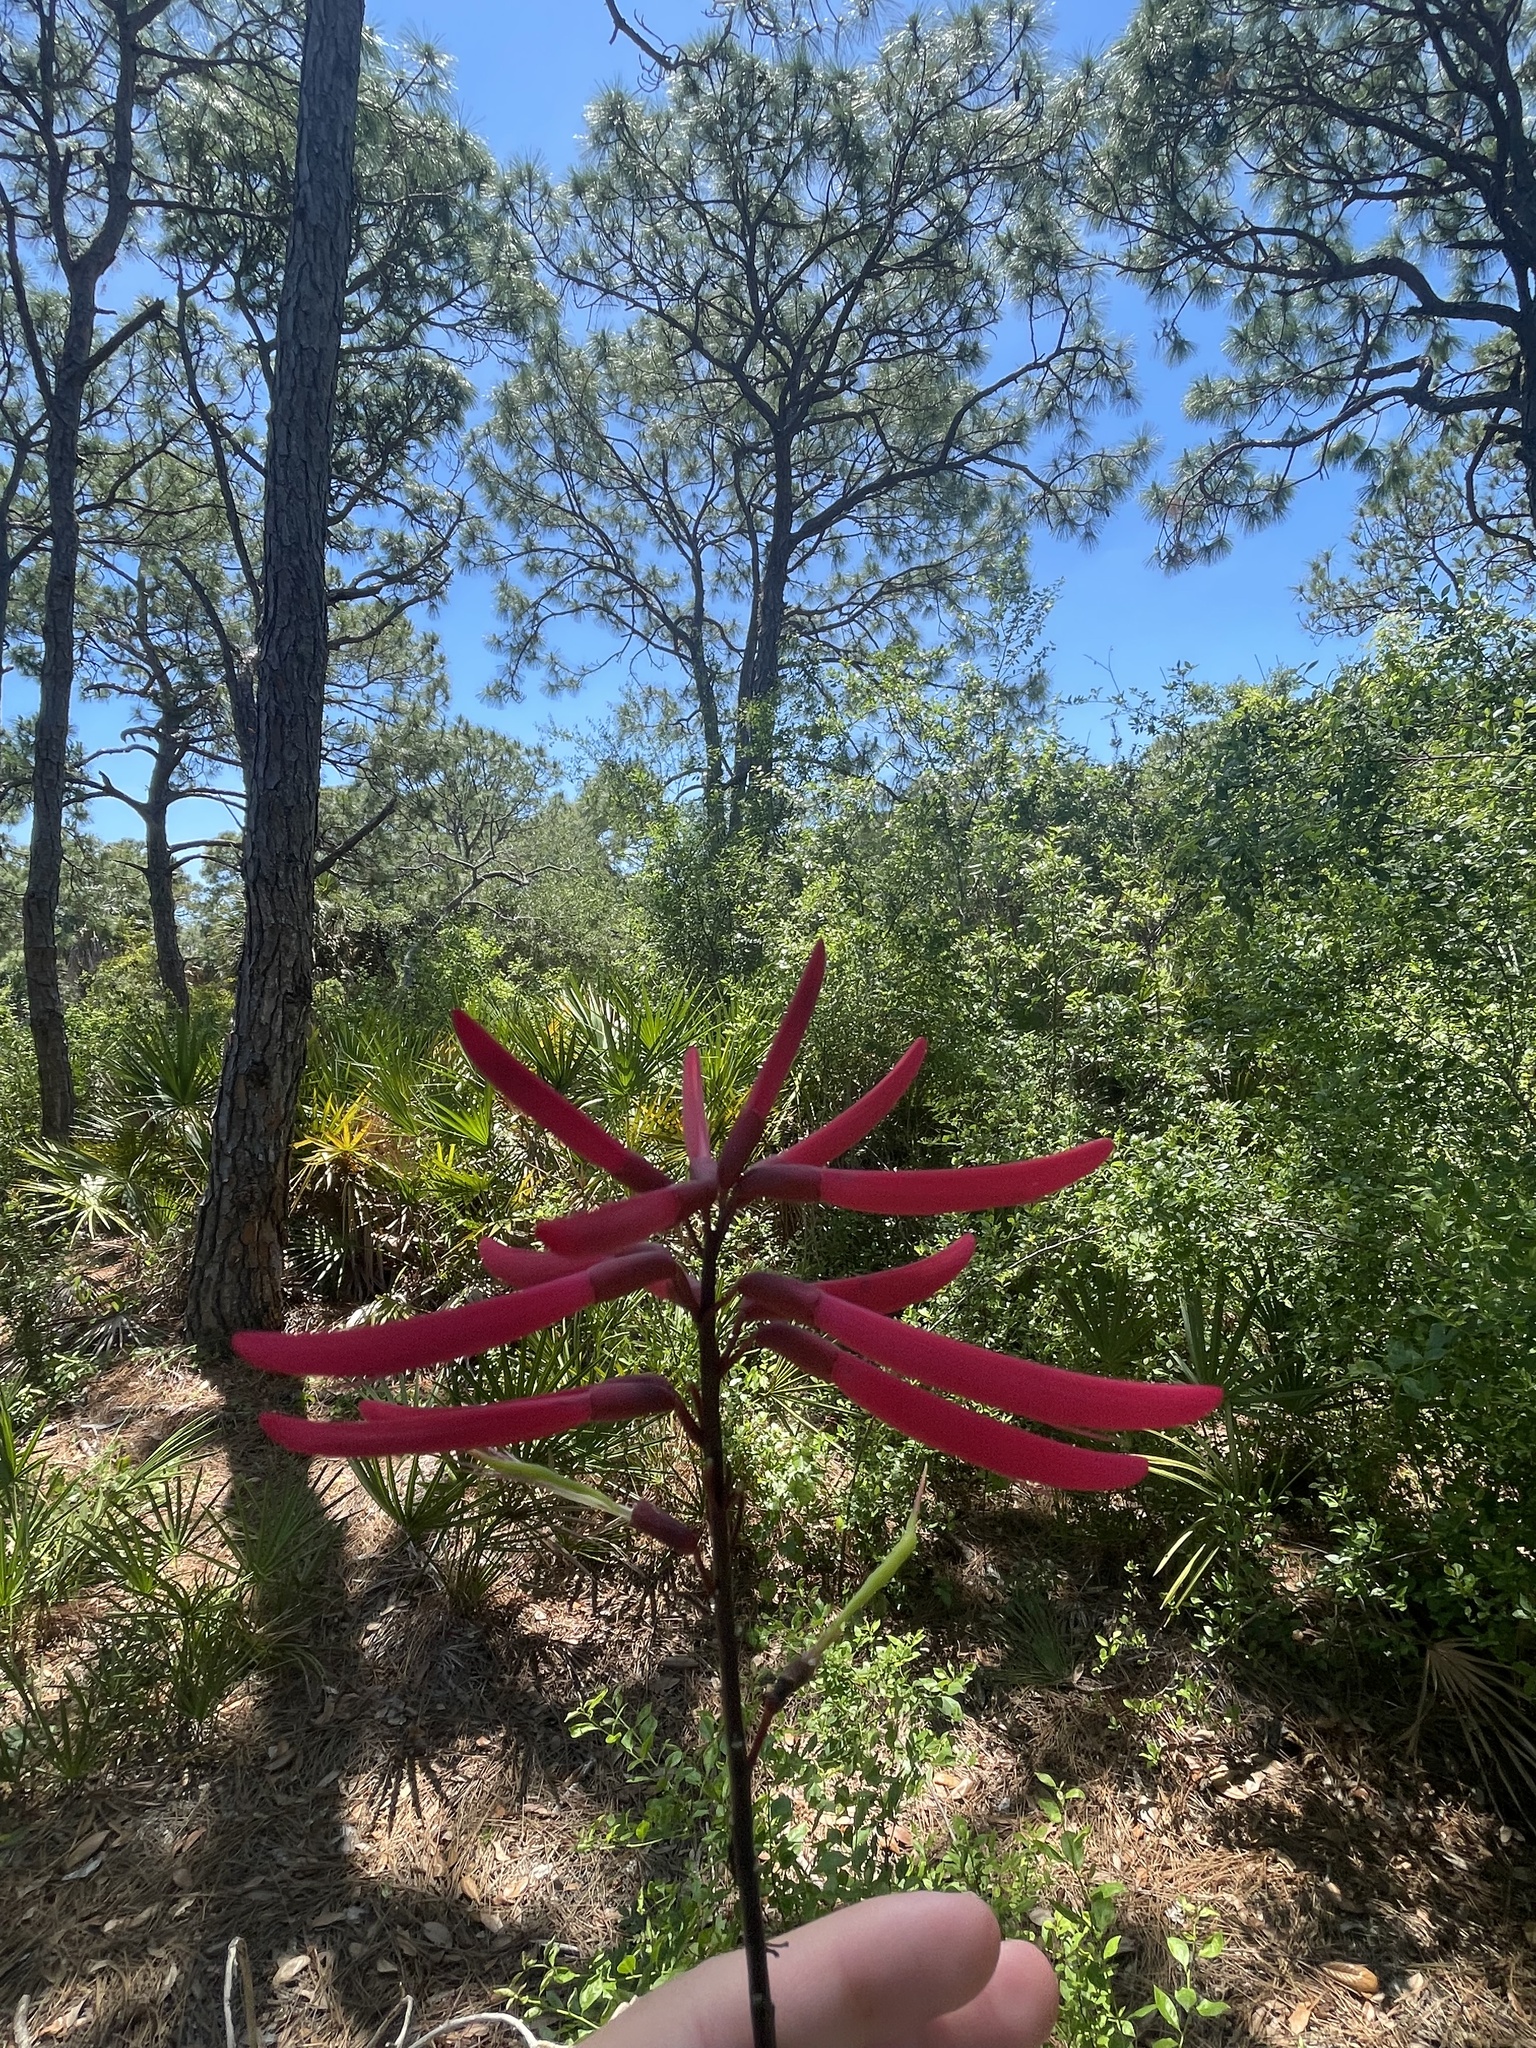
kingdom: Plantae
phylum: Tracheophyta
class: Magnoliopsida
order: Fabales
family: Fabaceae
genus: Erythrina
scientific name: Erythrina herbacea
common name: Coral-bean
